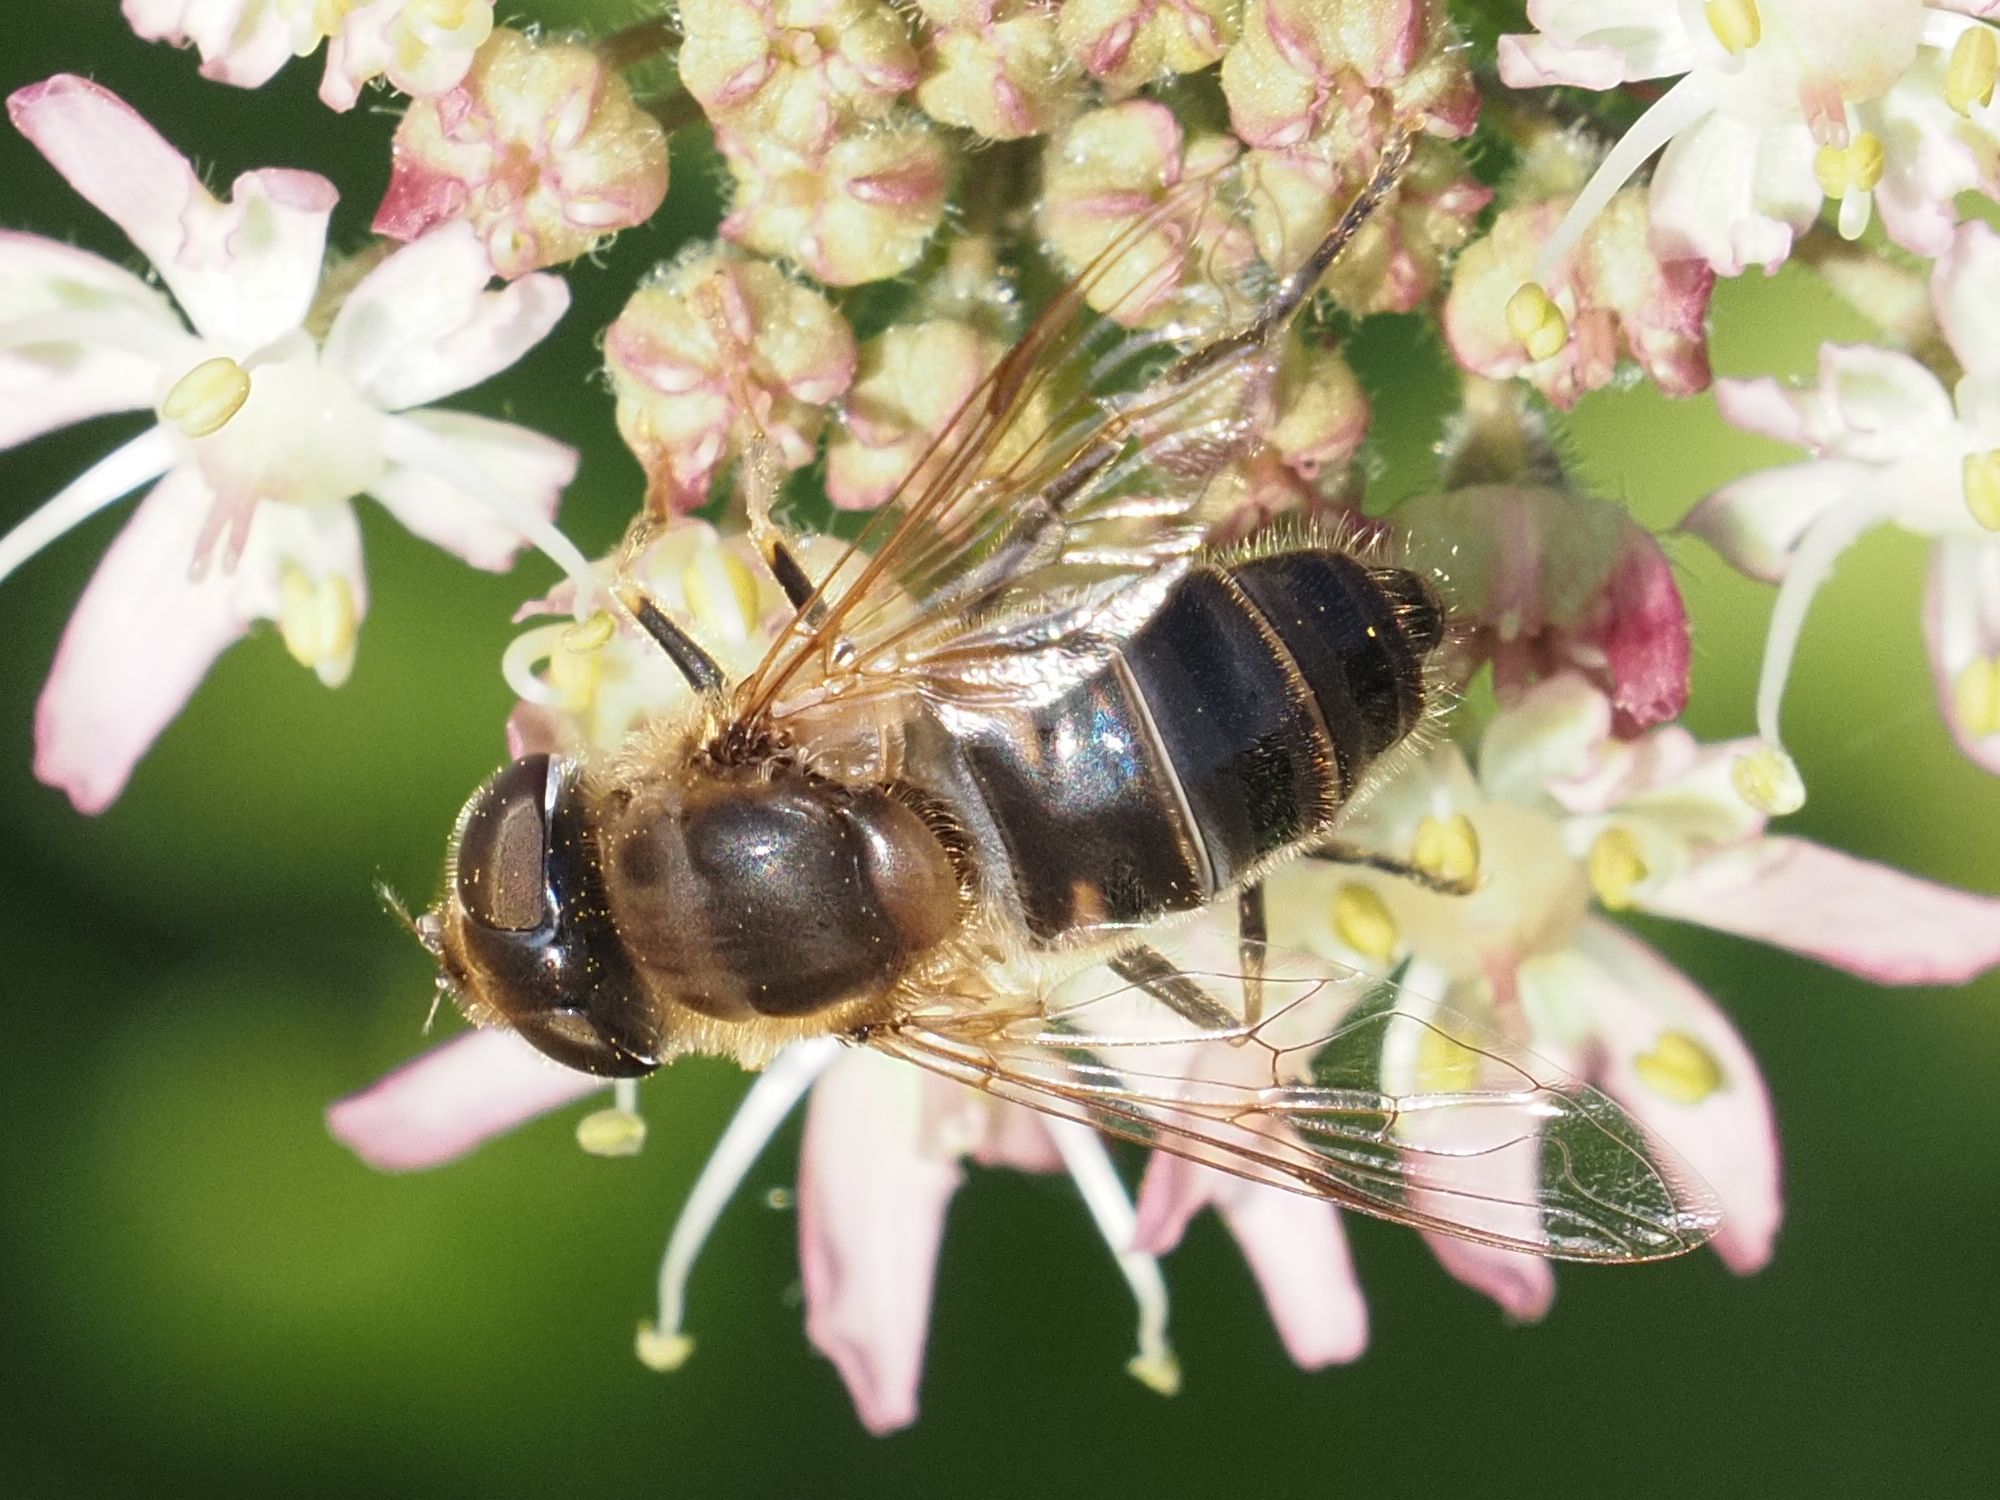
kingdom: Animalia
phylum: Arthropoda
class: Insecta
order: Diptera
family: Syrphidae
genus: Eristalis
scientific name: Eristalis pertinax
